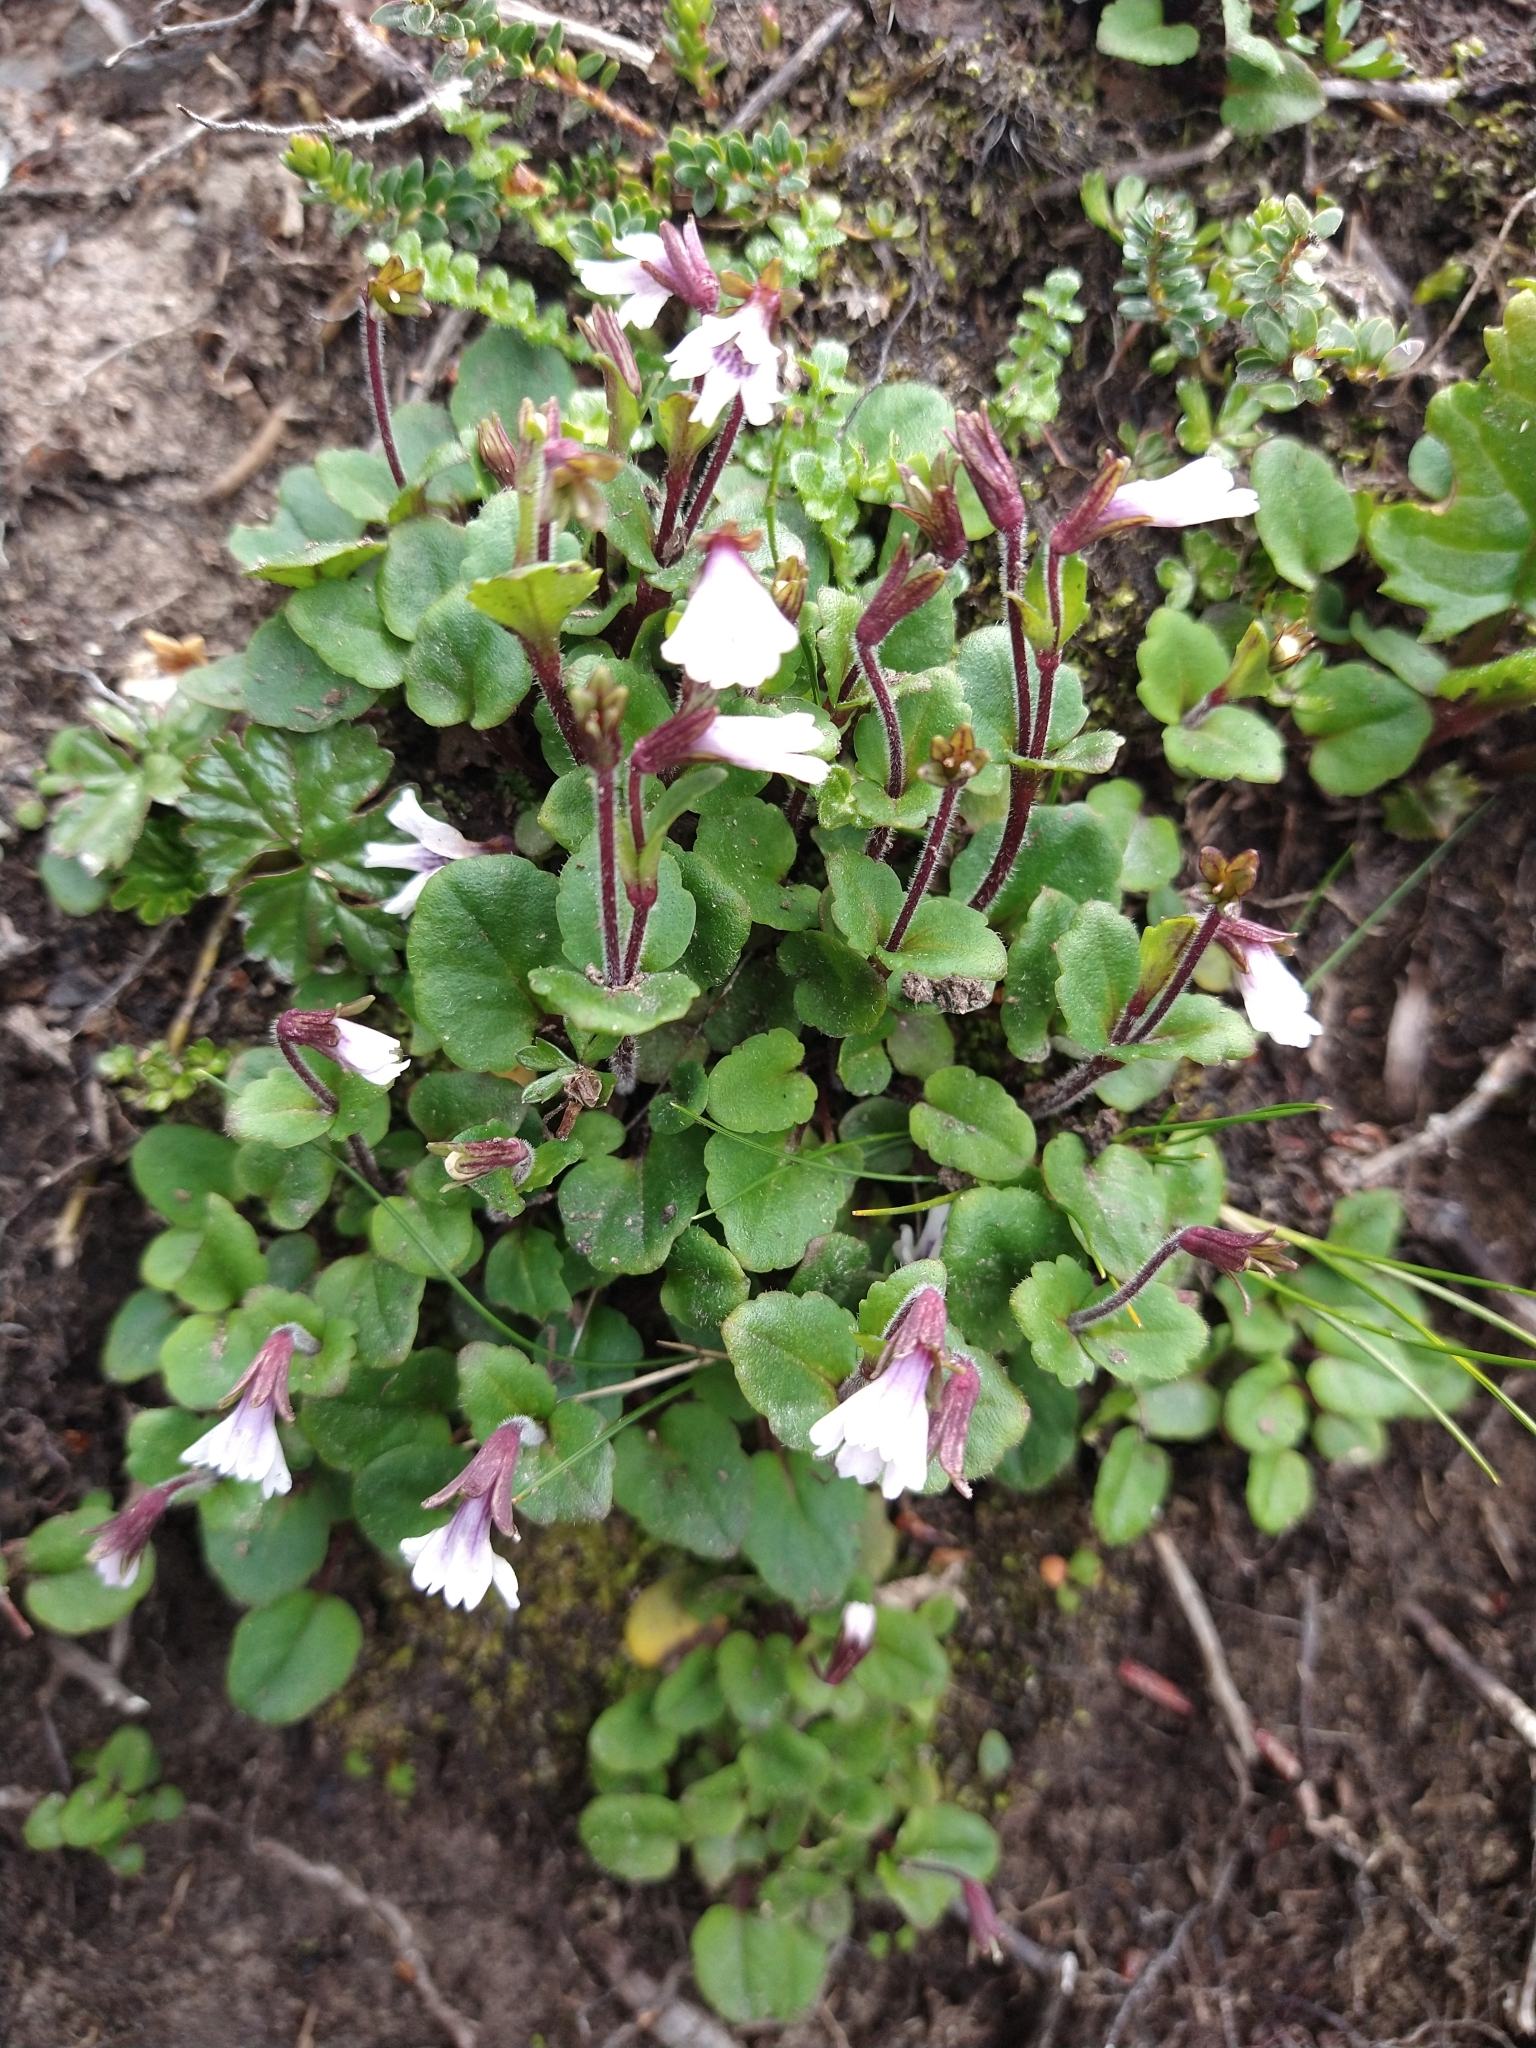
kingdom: Plantae
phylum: Tracheophyta
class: Magnoliopsida
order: Lamiales
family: Plantaginaceae
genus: Ourisia
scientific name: Ourisia breviflora
